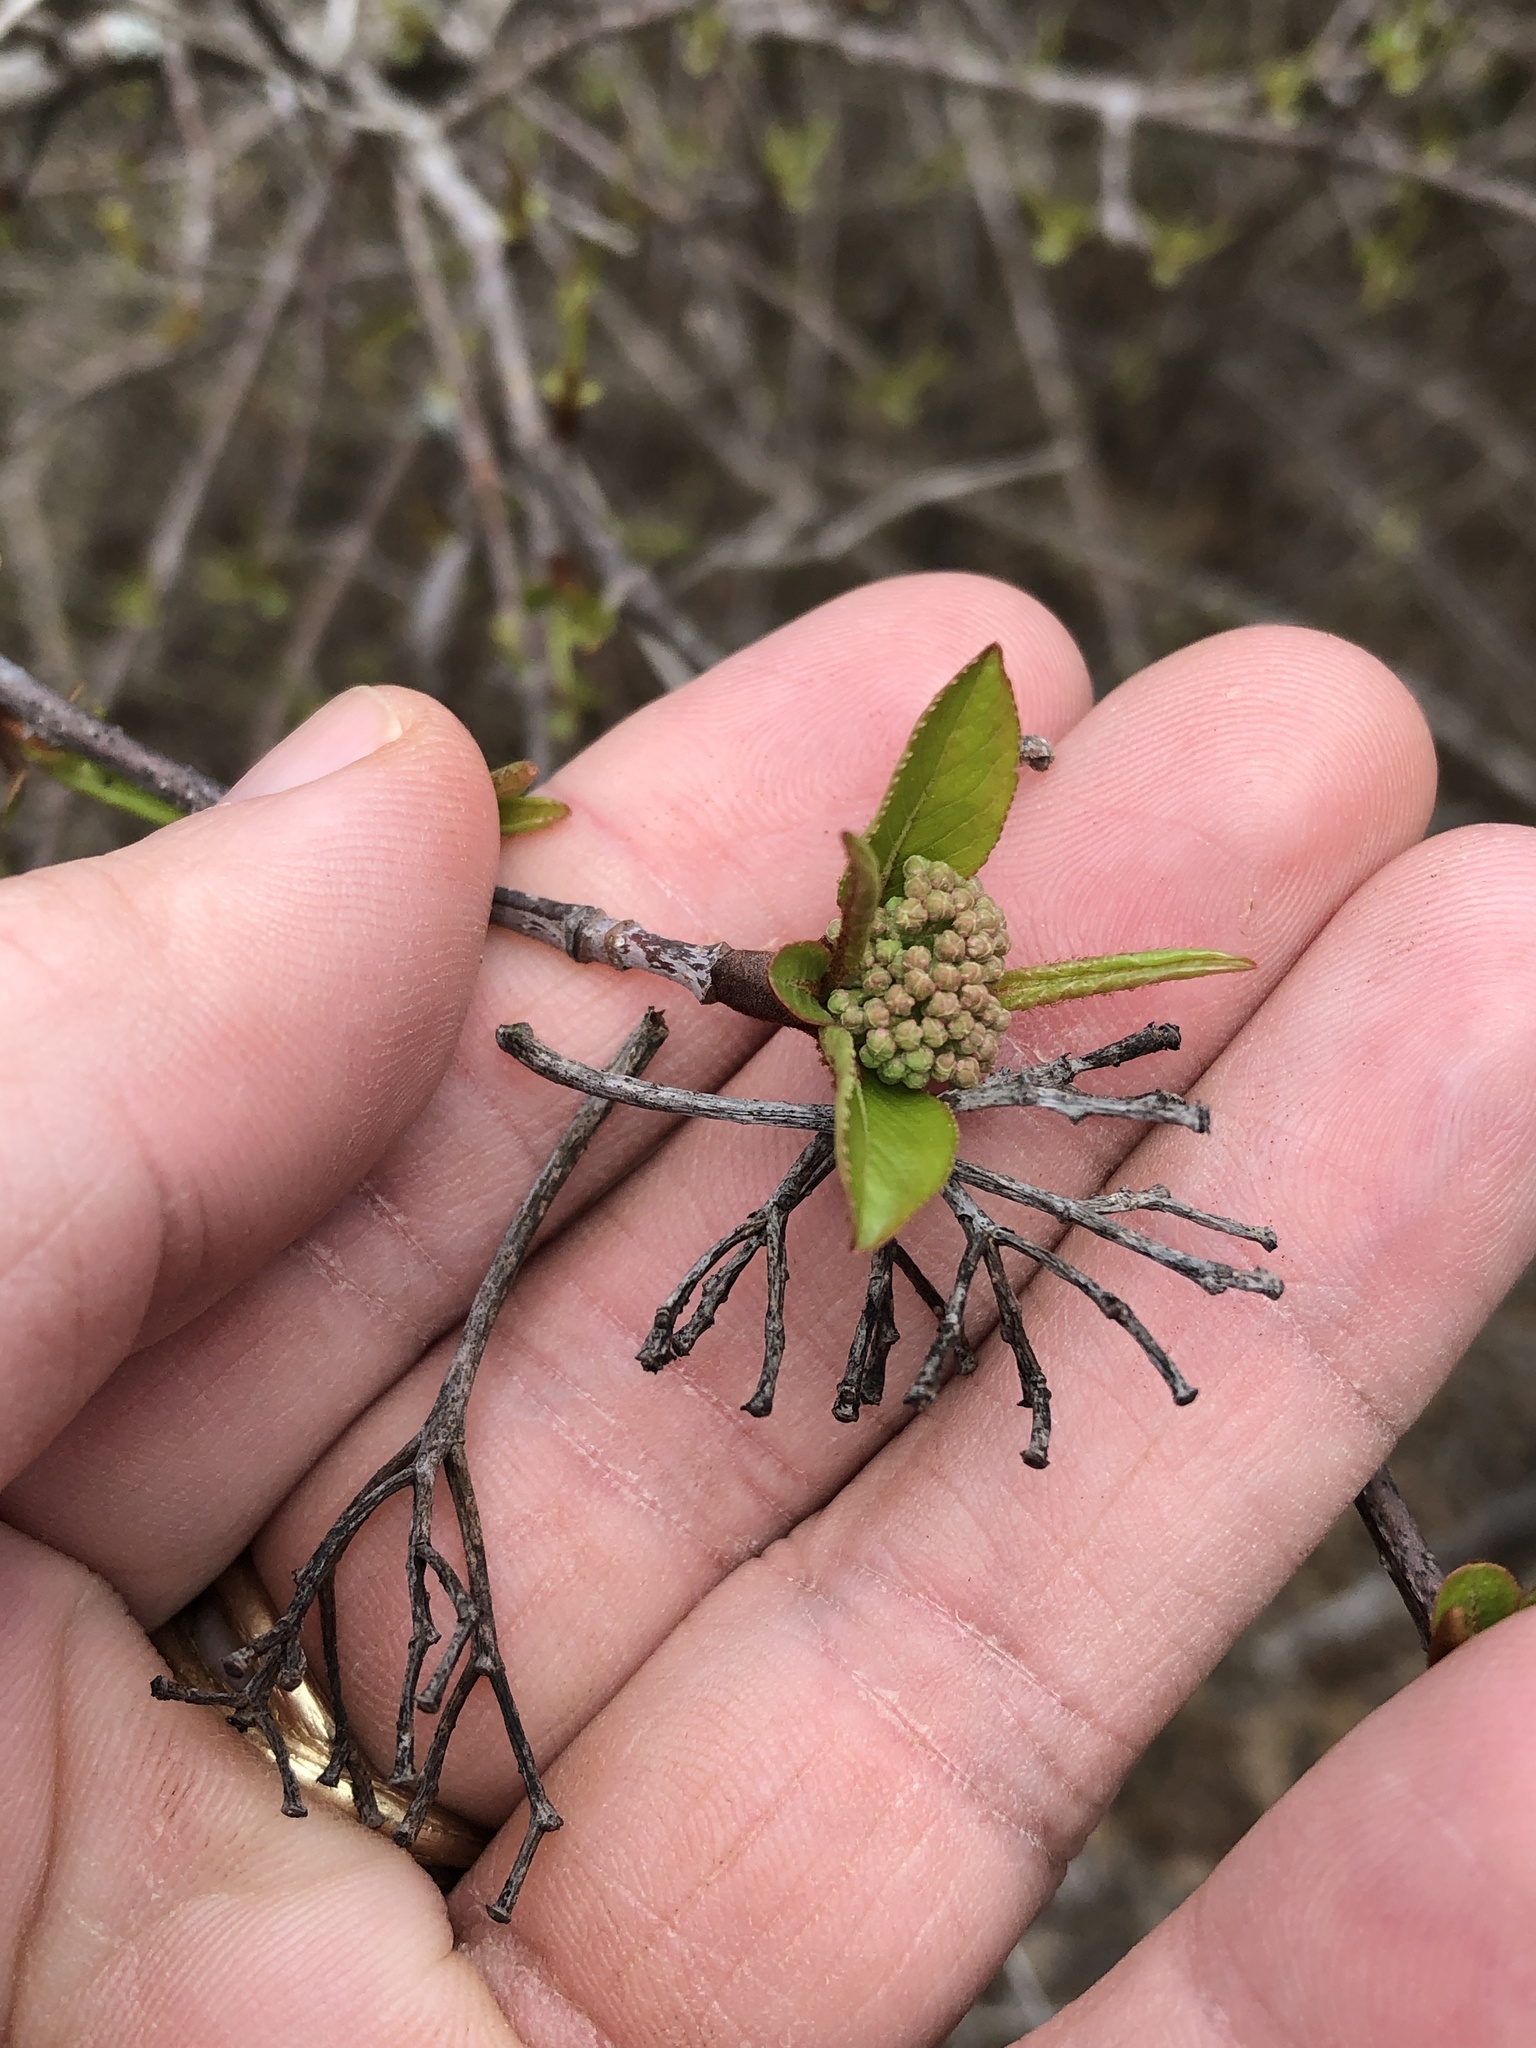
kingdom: Plantae
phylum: Tracheophyta
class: Magnoliopsida
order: Dipsacales
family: Viburnaceae
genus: Viburnum
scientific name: Viburnum rufidulum
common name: Blue haw
